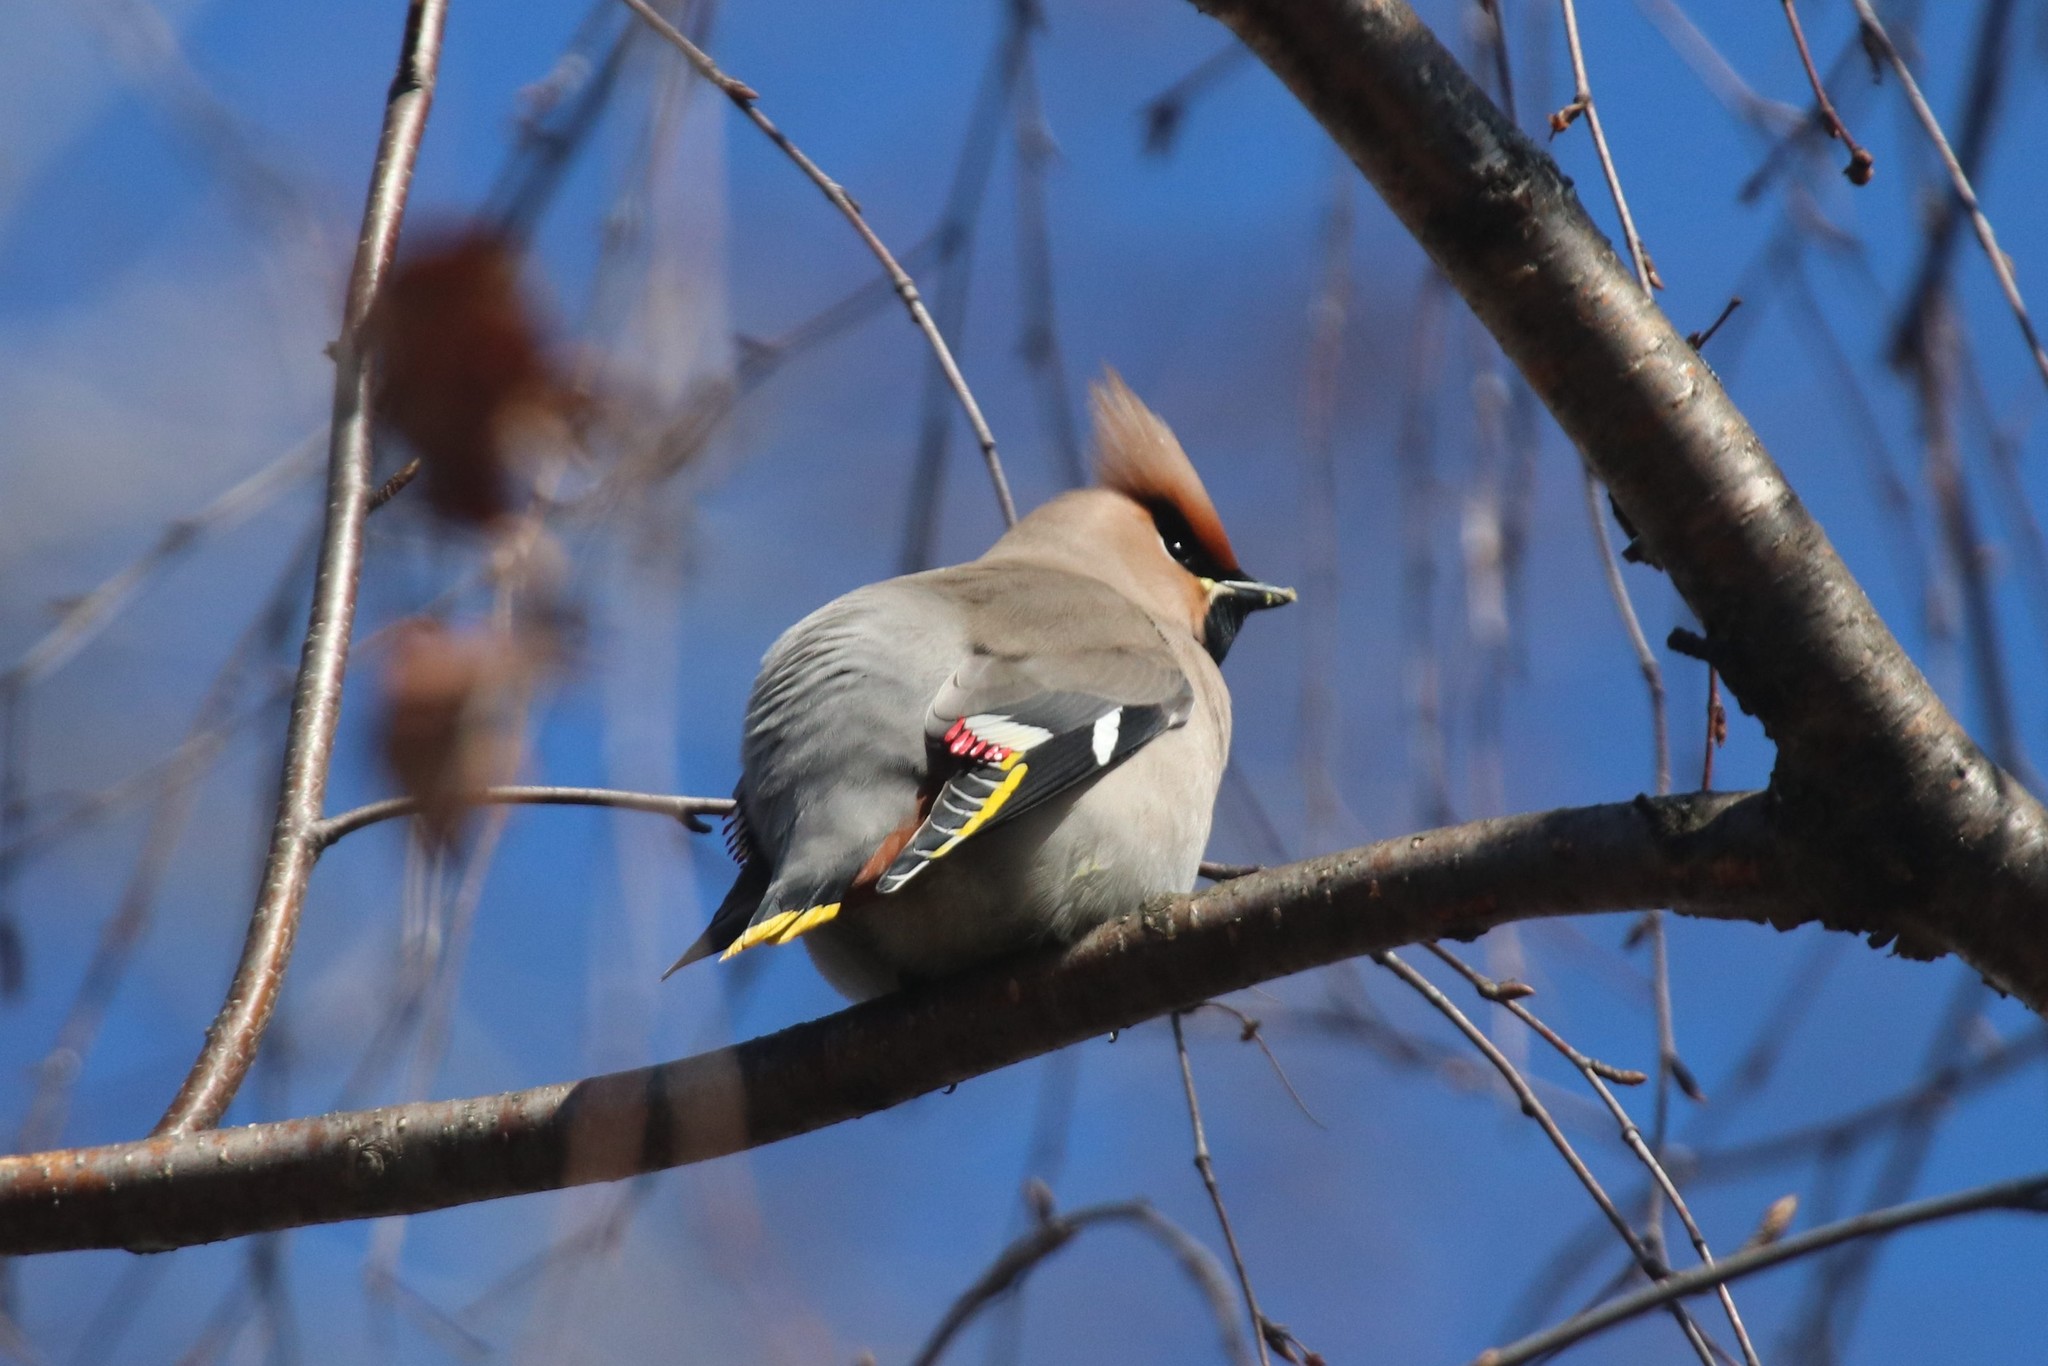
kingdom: Animalia
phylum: Chordata
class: Aves
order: Passeriformes
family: Bombycillidae
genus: Bombycilla
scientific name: Bombycilla garrulus
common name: Bohemian waxwing
